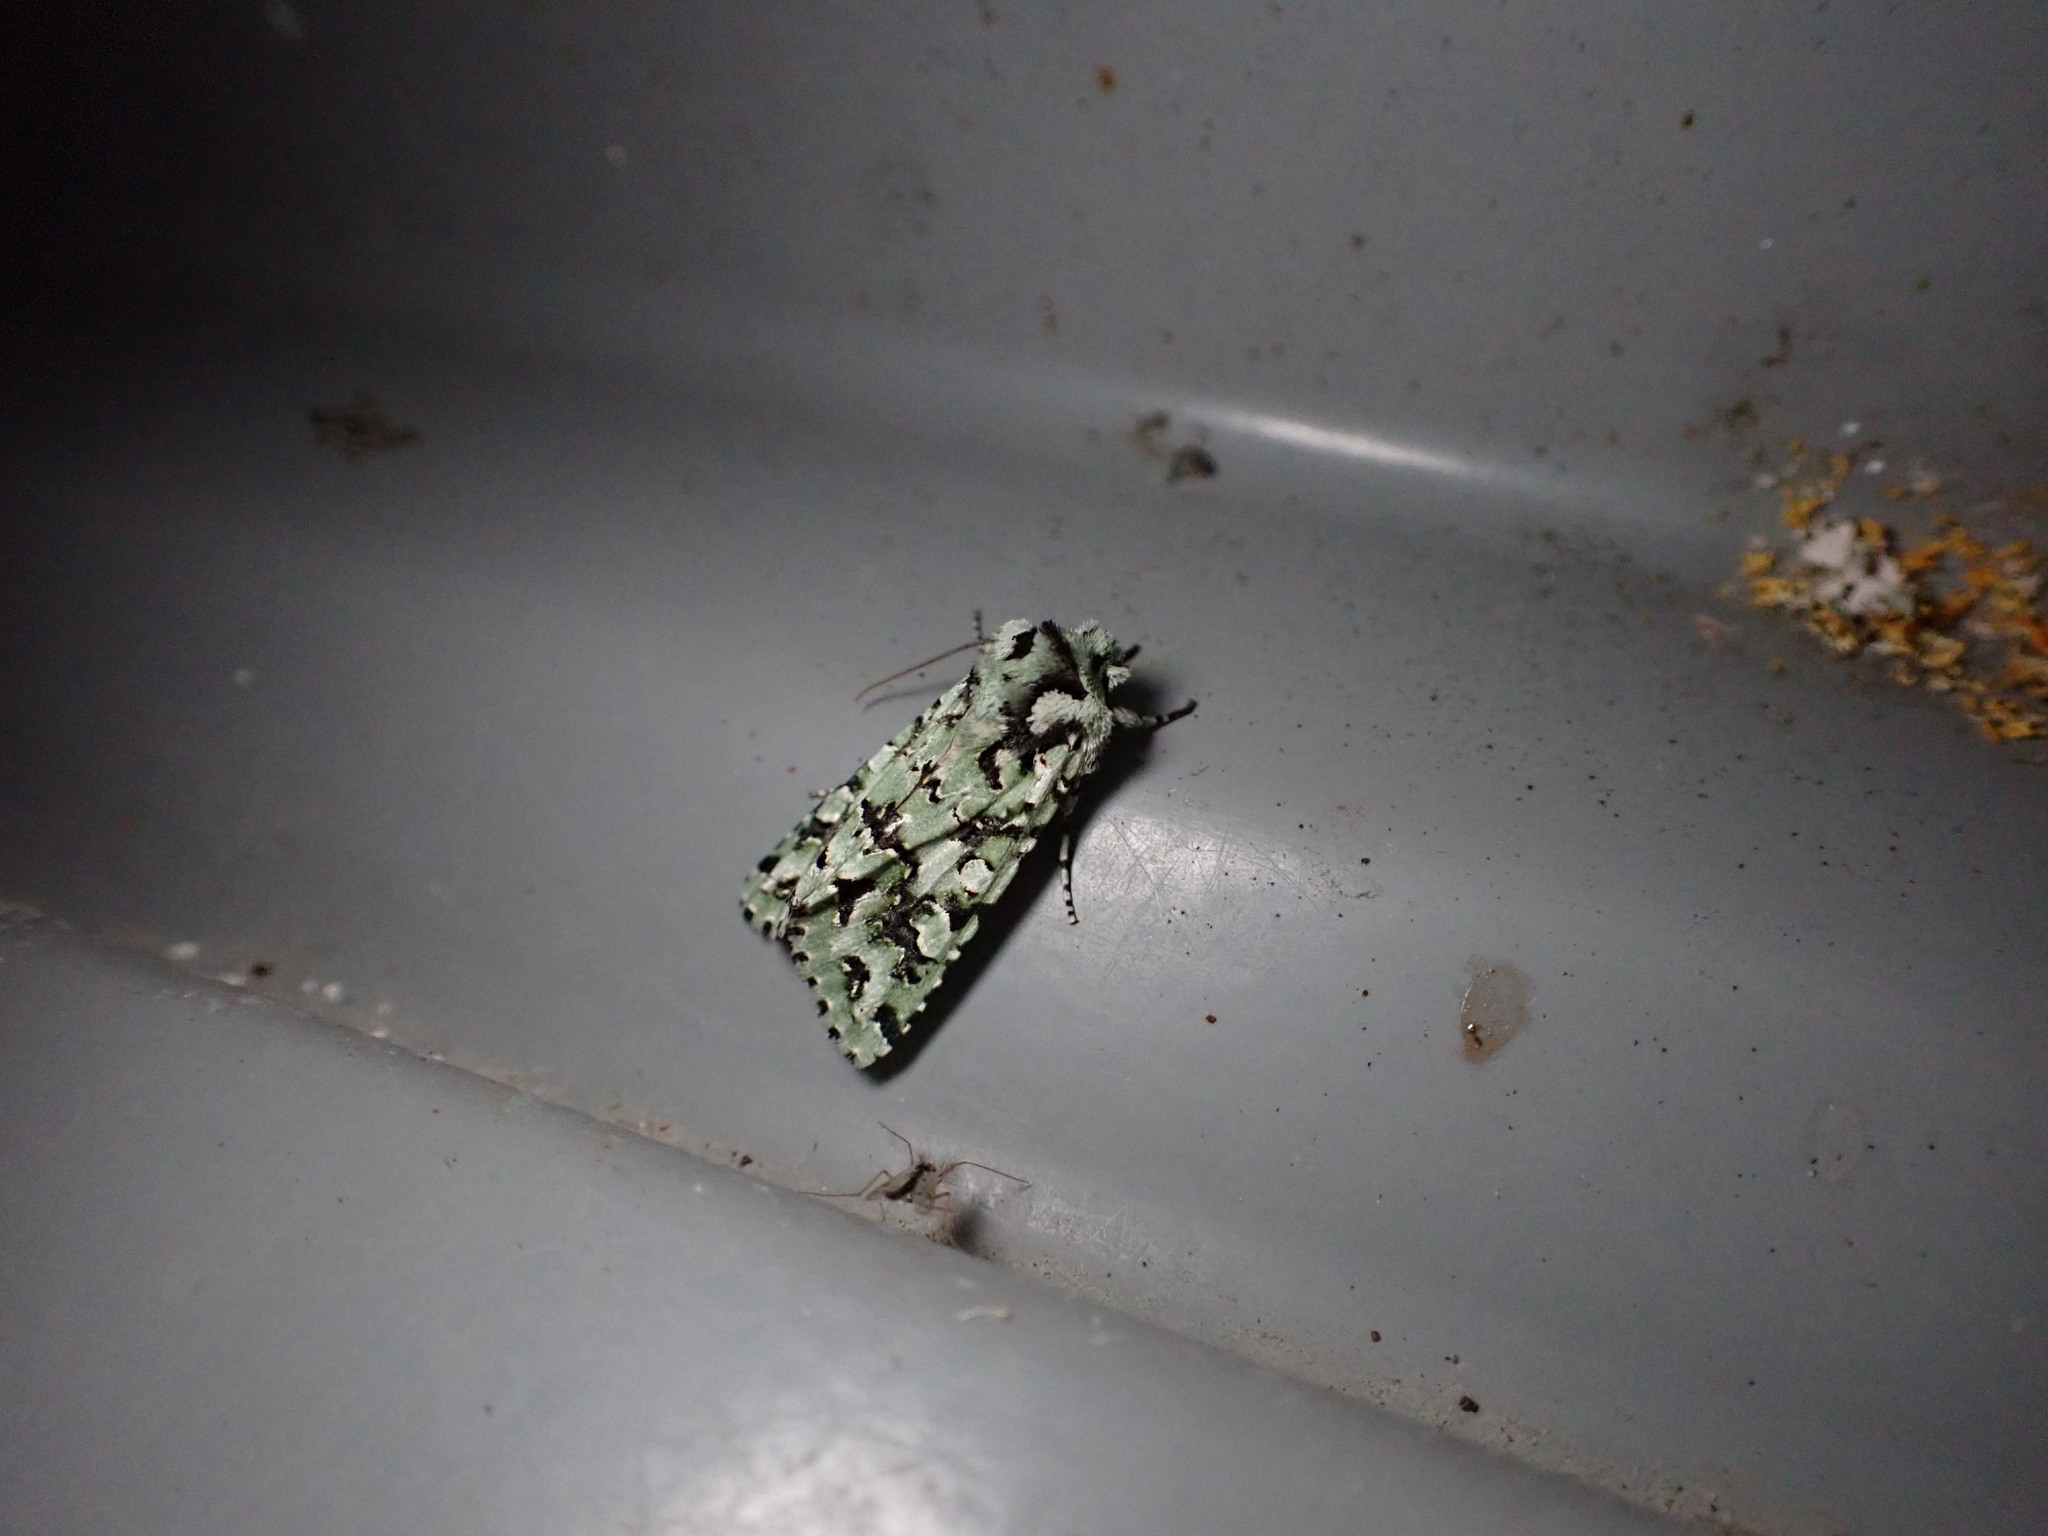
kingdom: Animalia
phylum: Arthropoda
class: Insecta
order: Lepidoptera
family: Noctuidae
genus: Meterana
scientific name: Meterana
